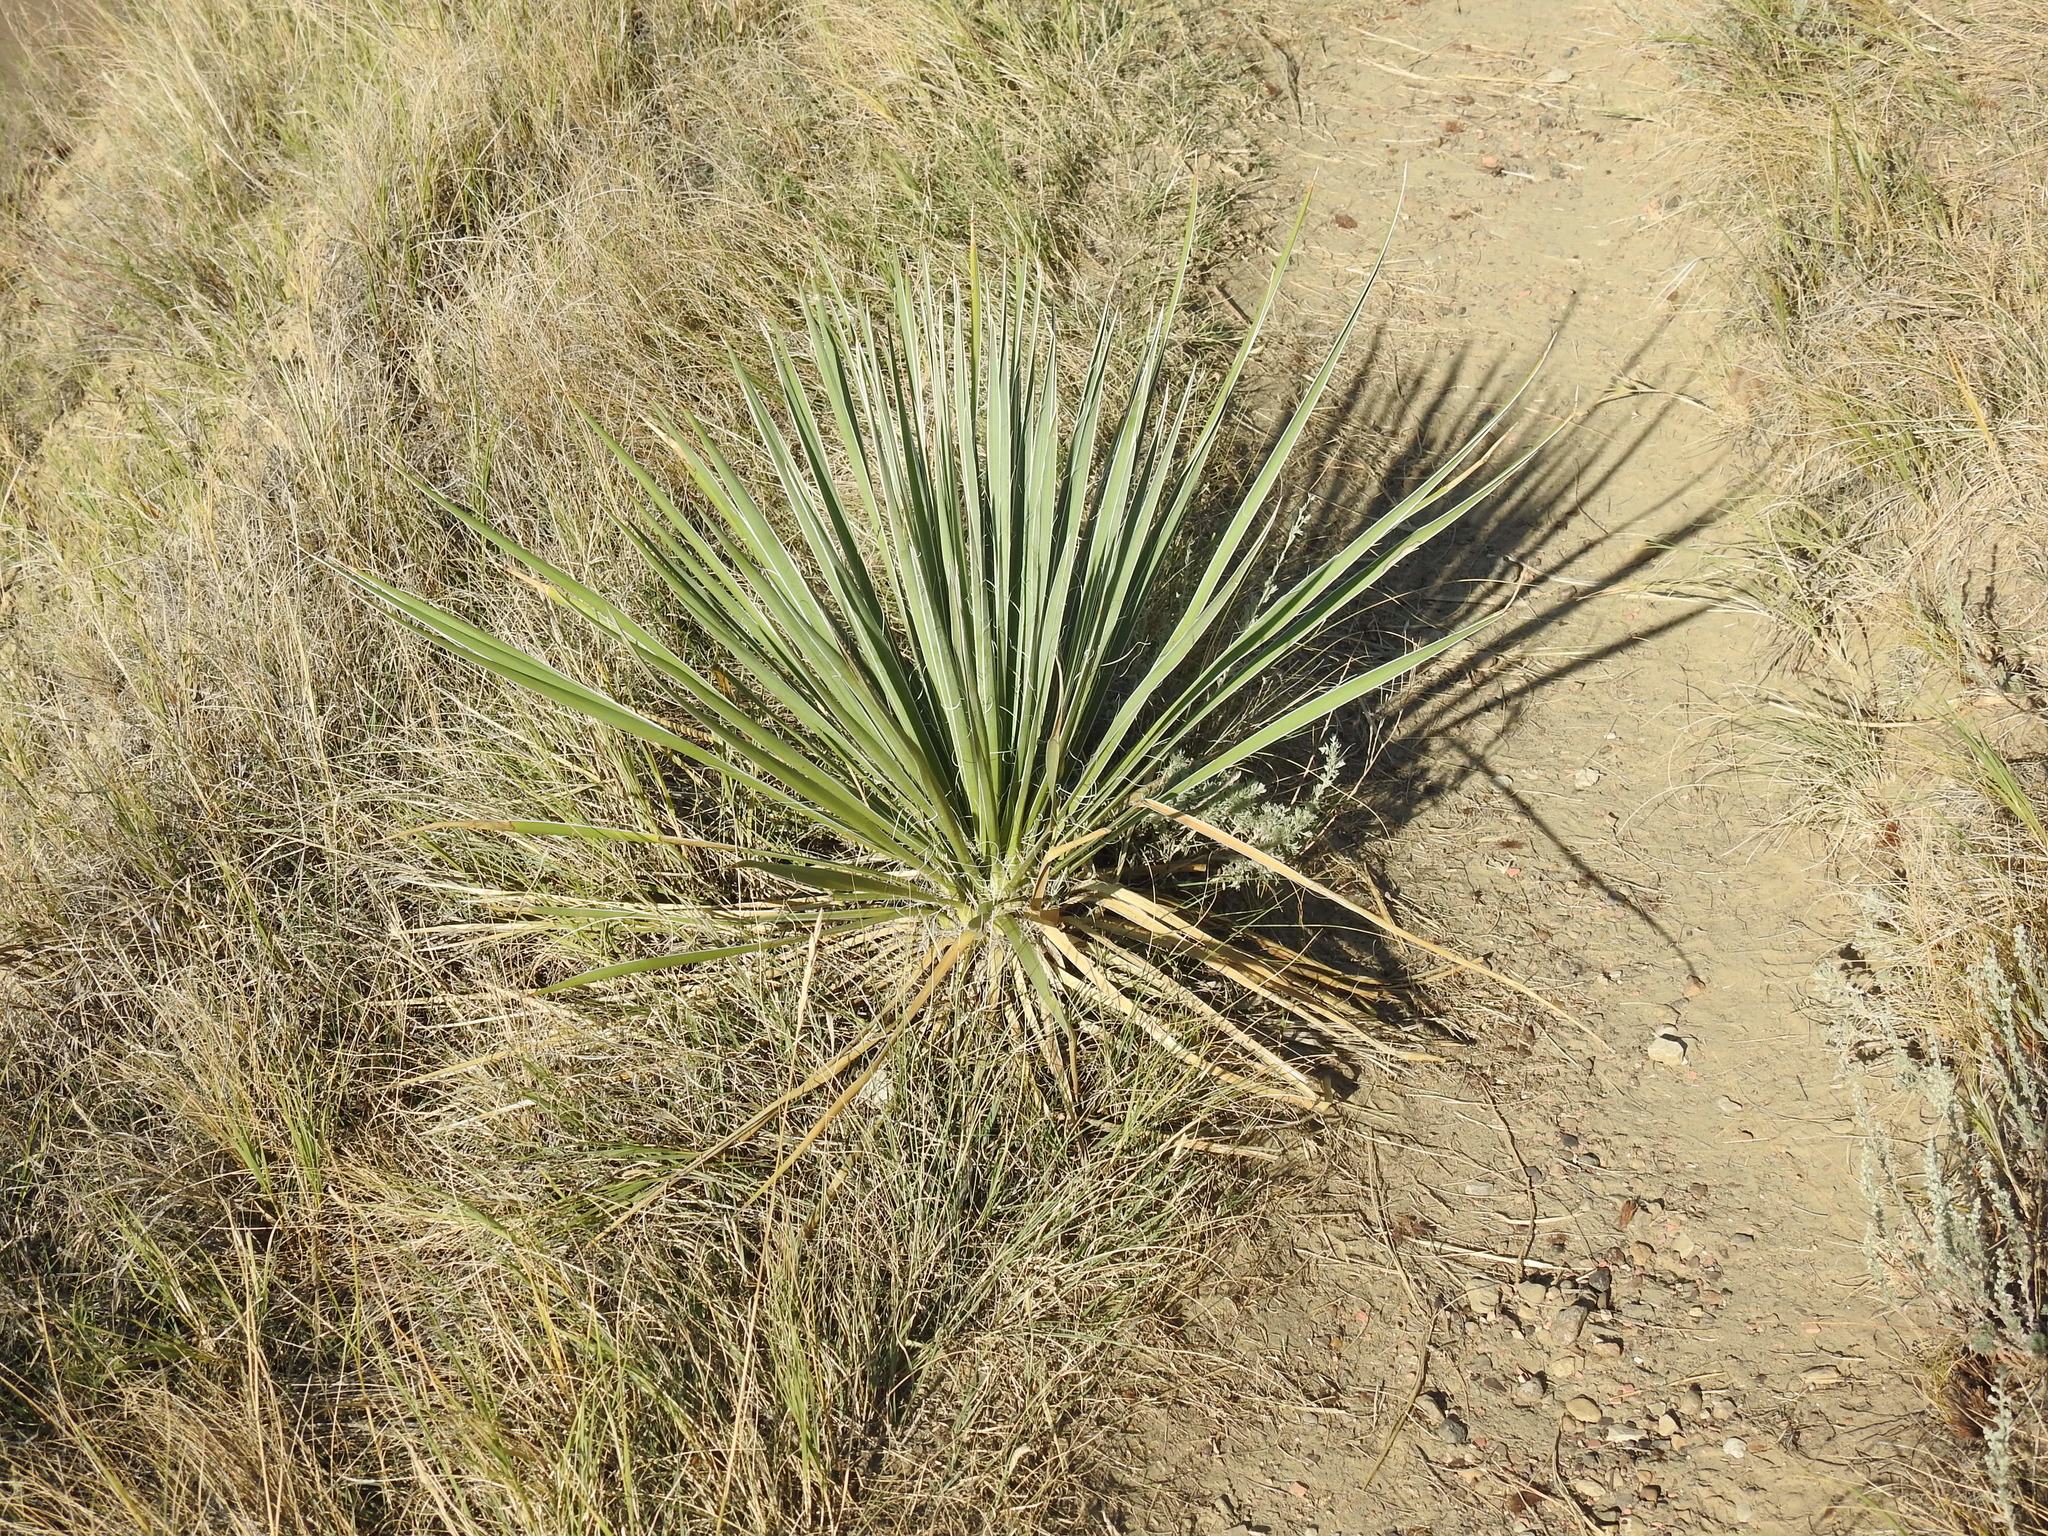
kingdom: Plantae
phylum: Tracheophyta
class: Liliopsida
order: Asparagales
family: Asparagaceae
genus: Yucca
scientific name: Yucca glauca
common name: Great plains yucca
